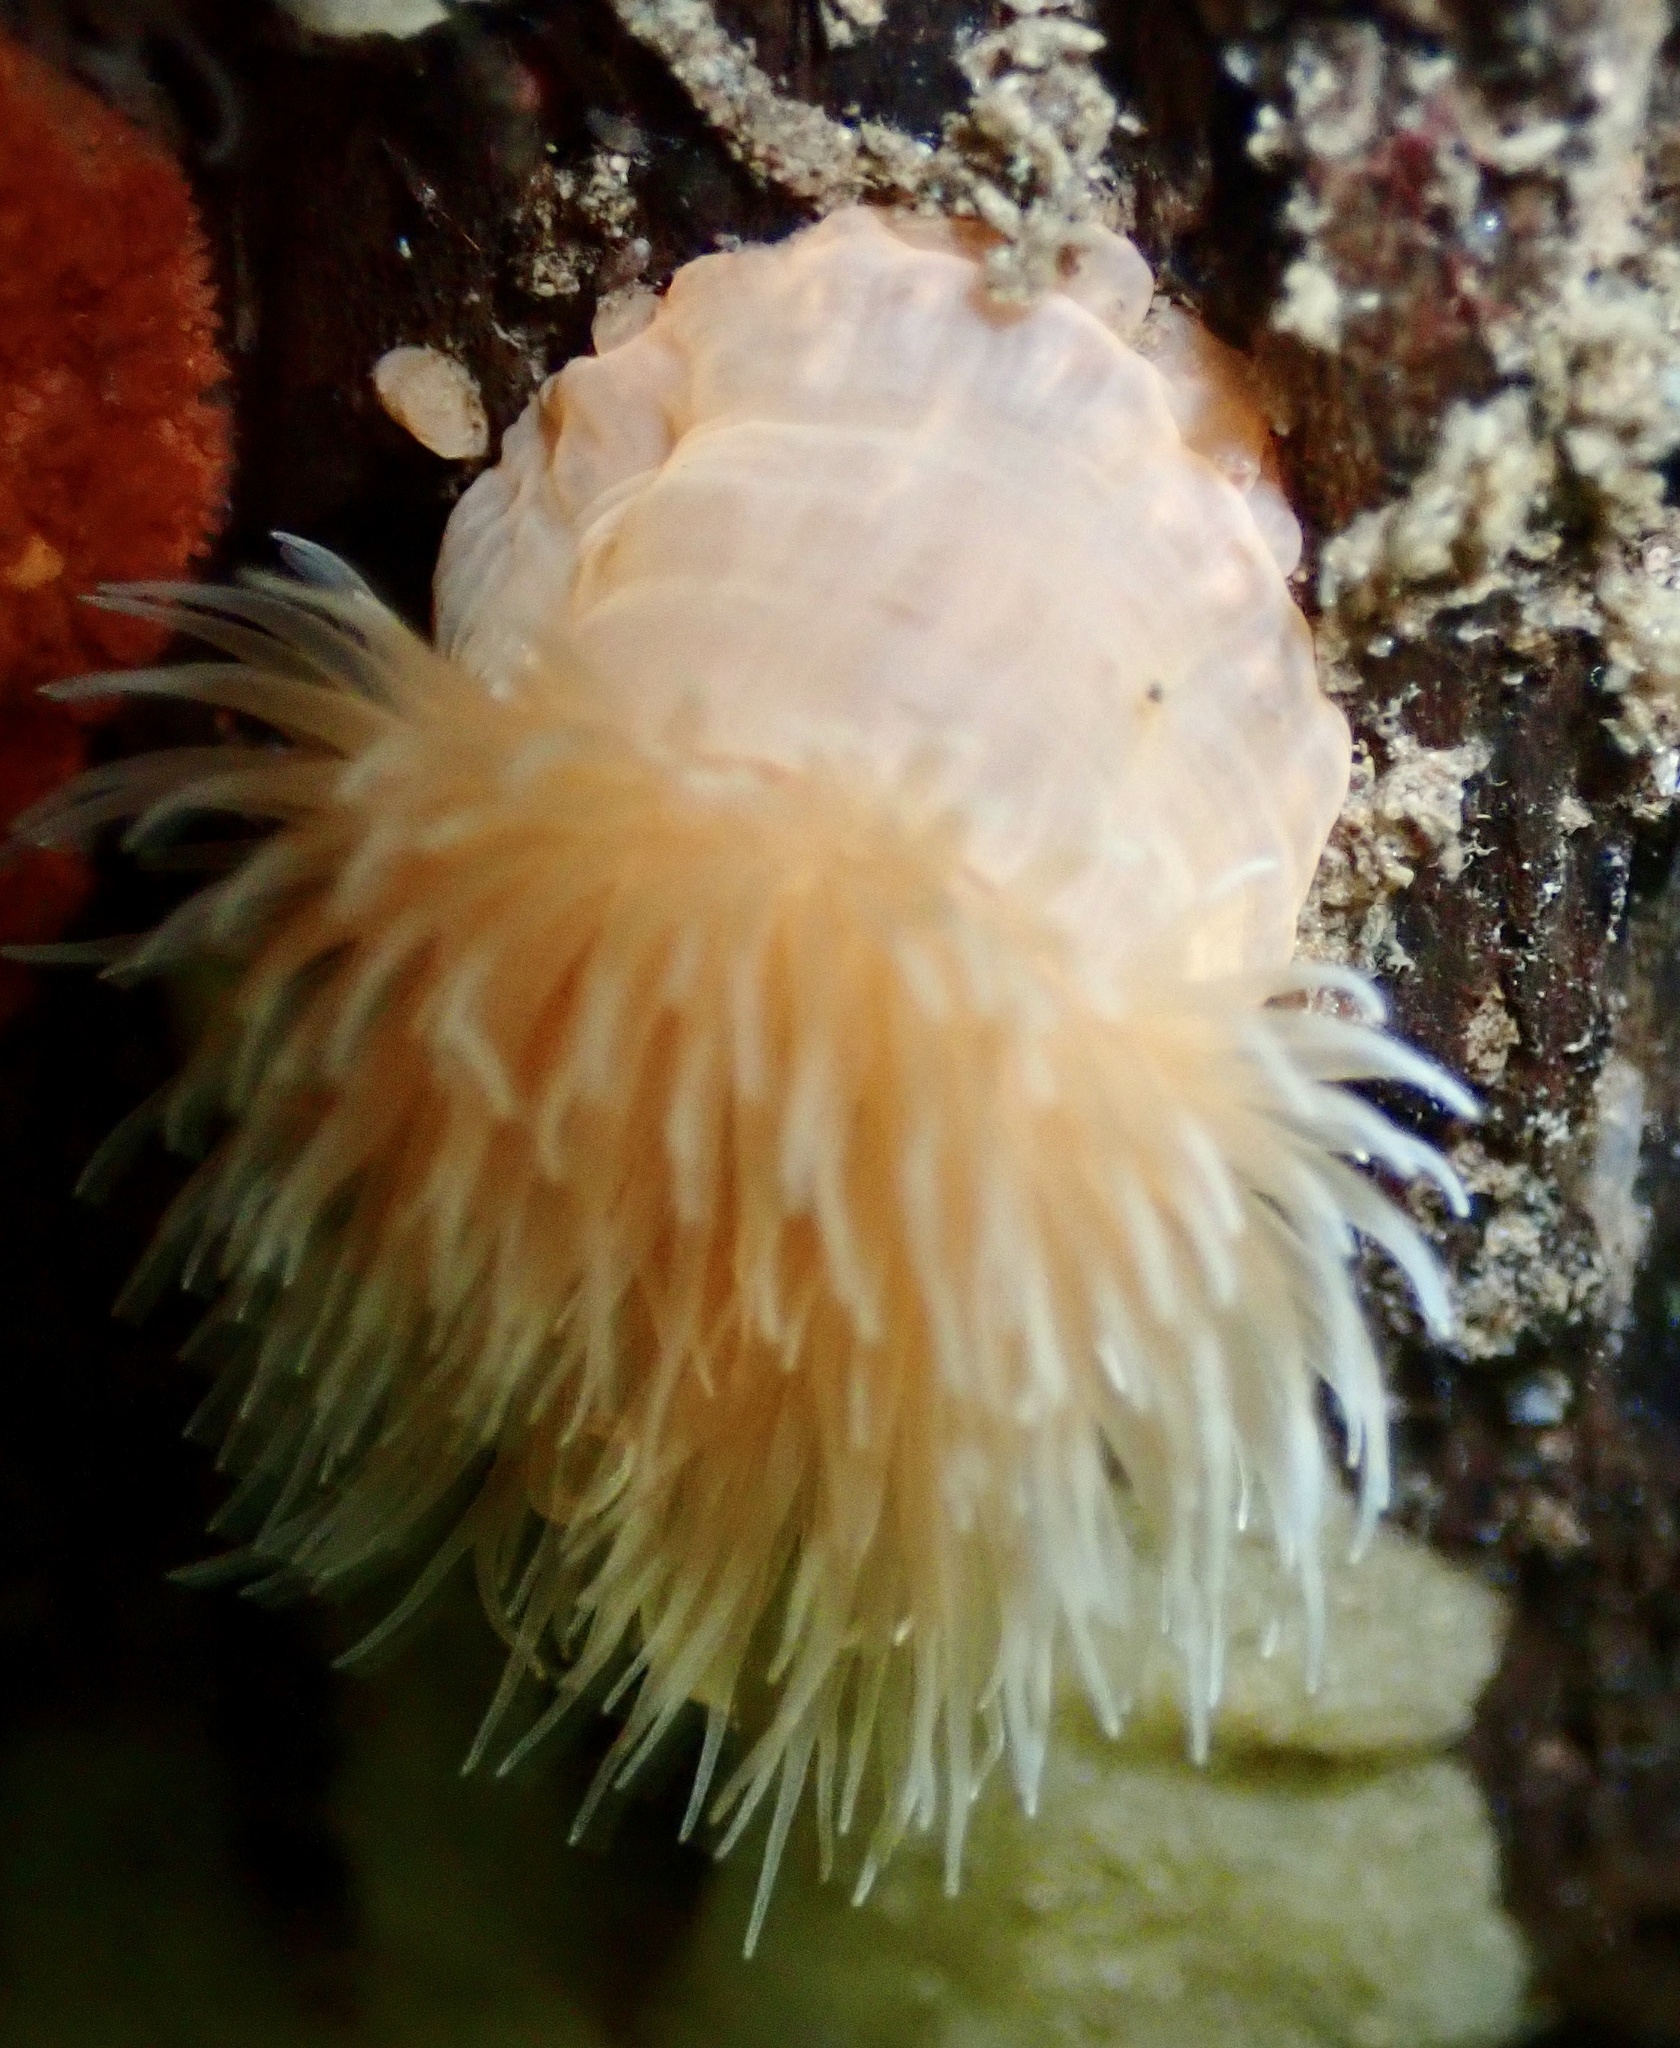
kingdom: Animalia
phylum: Cnidaria
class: Anthozoa
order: Actiniaria
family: Metridiidae
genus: Metridium
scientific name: Metridium senile
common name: Clonal plumose anemone
